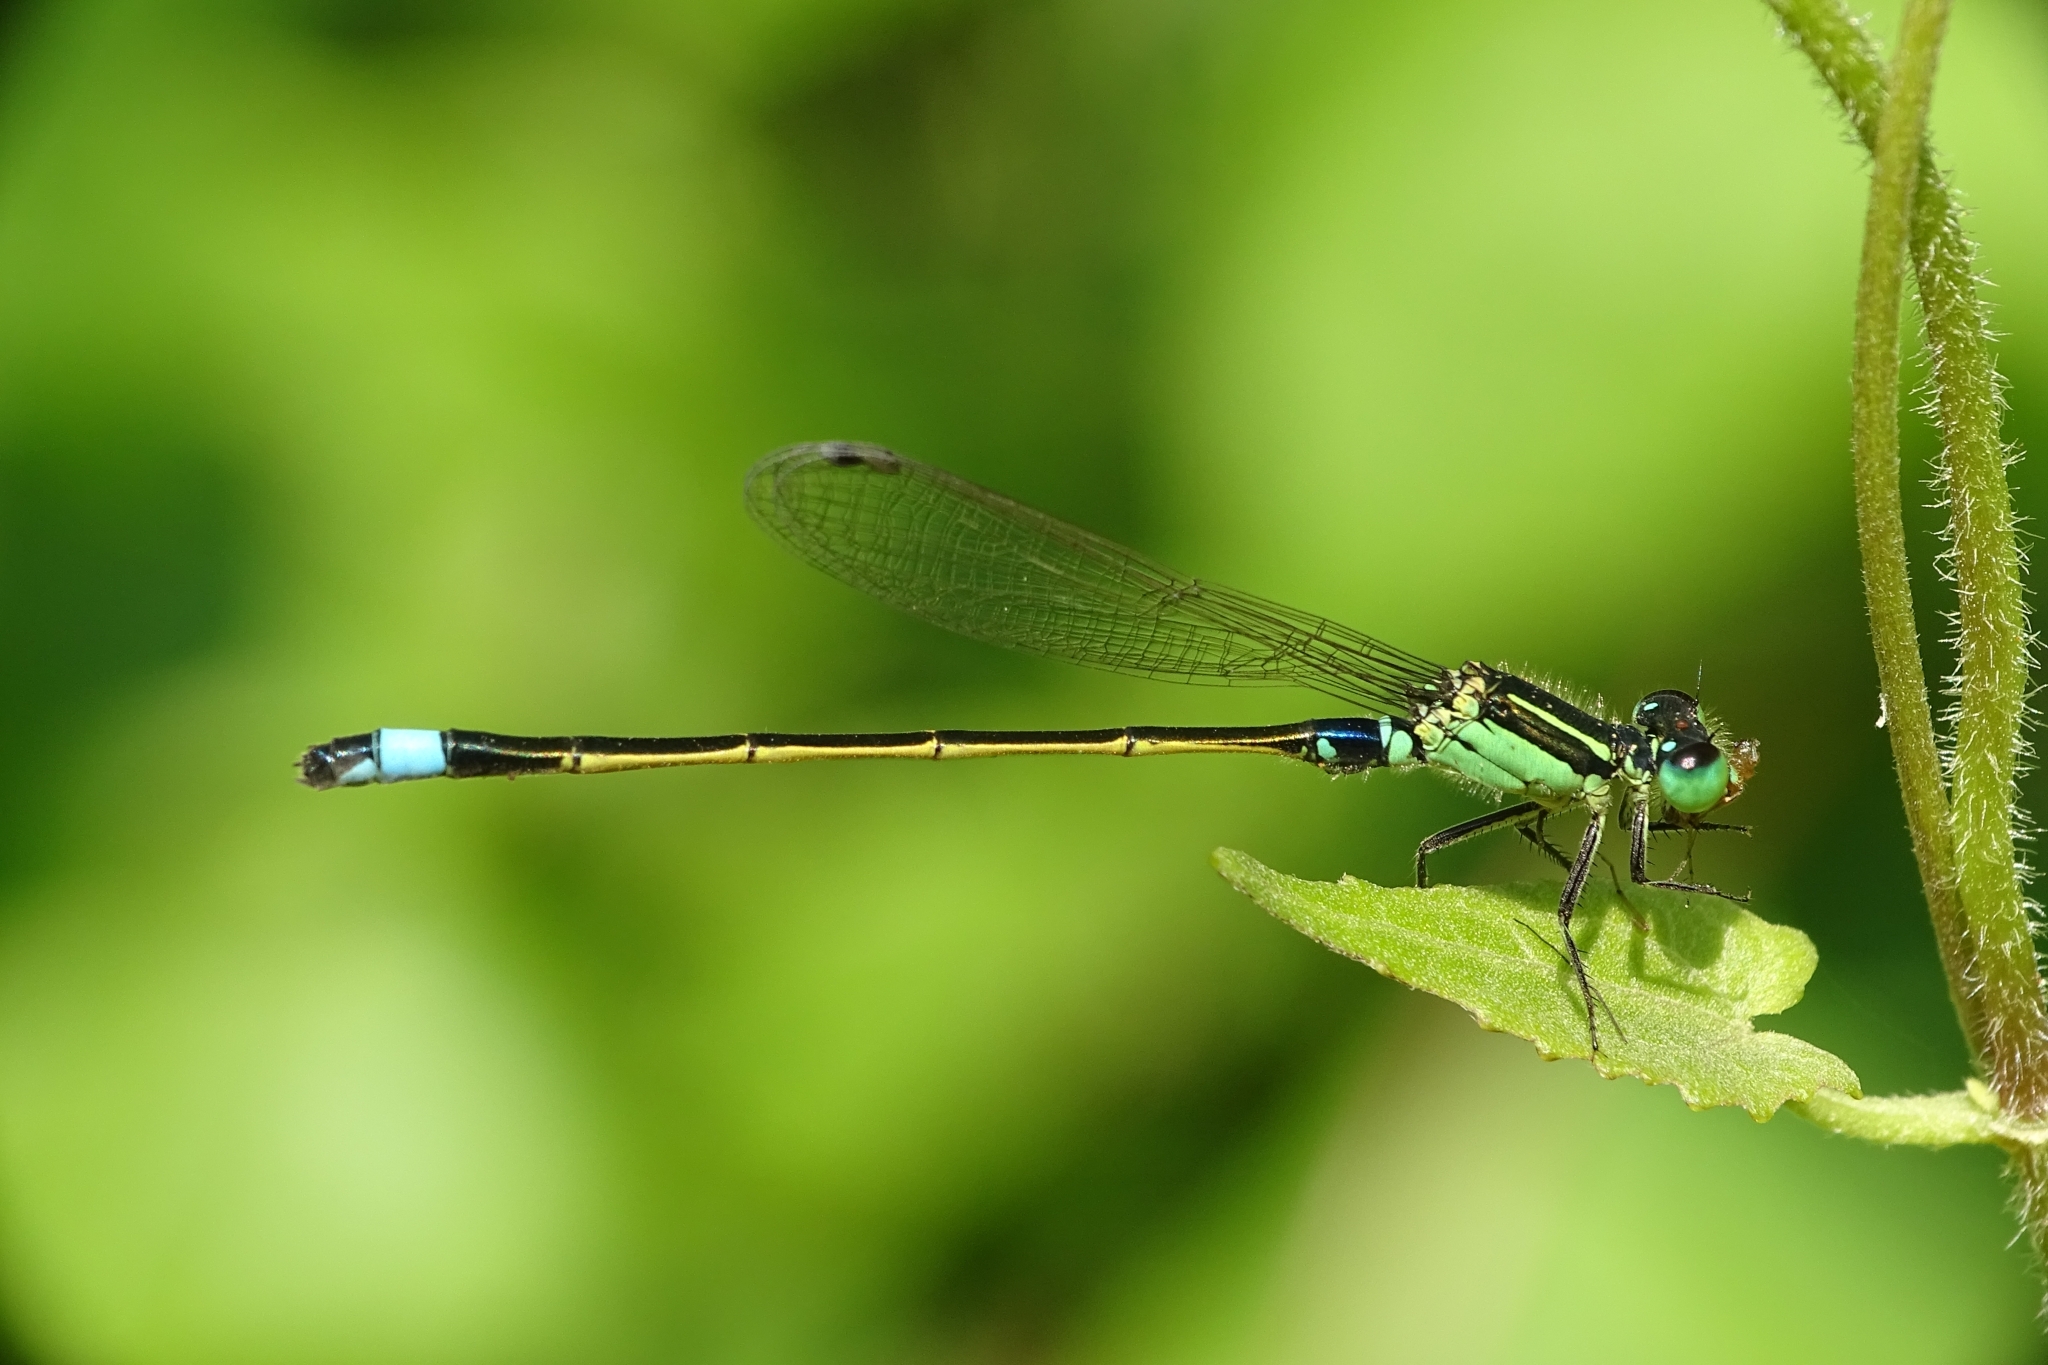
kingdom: Animalia
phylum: Arthropoda
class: Insecta
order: Odonata
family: Coenagrionidae
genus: Ischnura
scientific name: Ischnura senegalensis
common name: Tropical bluetail
